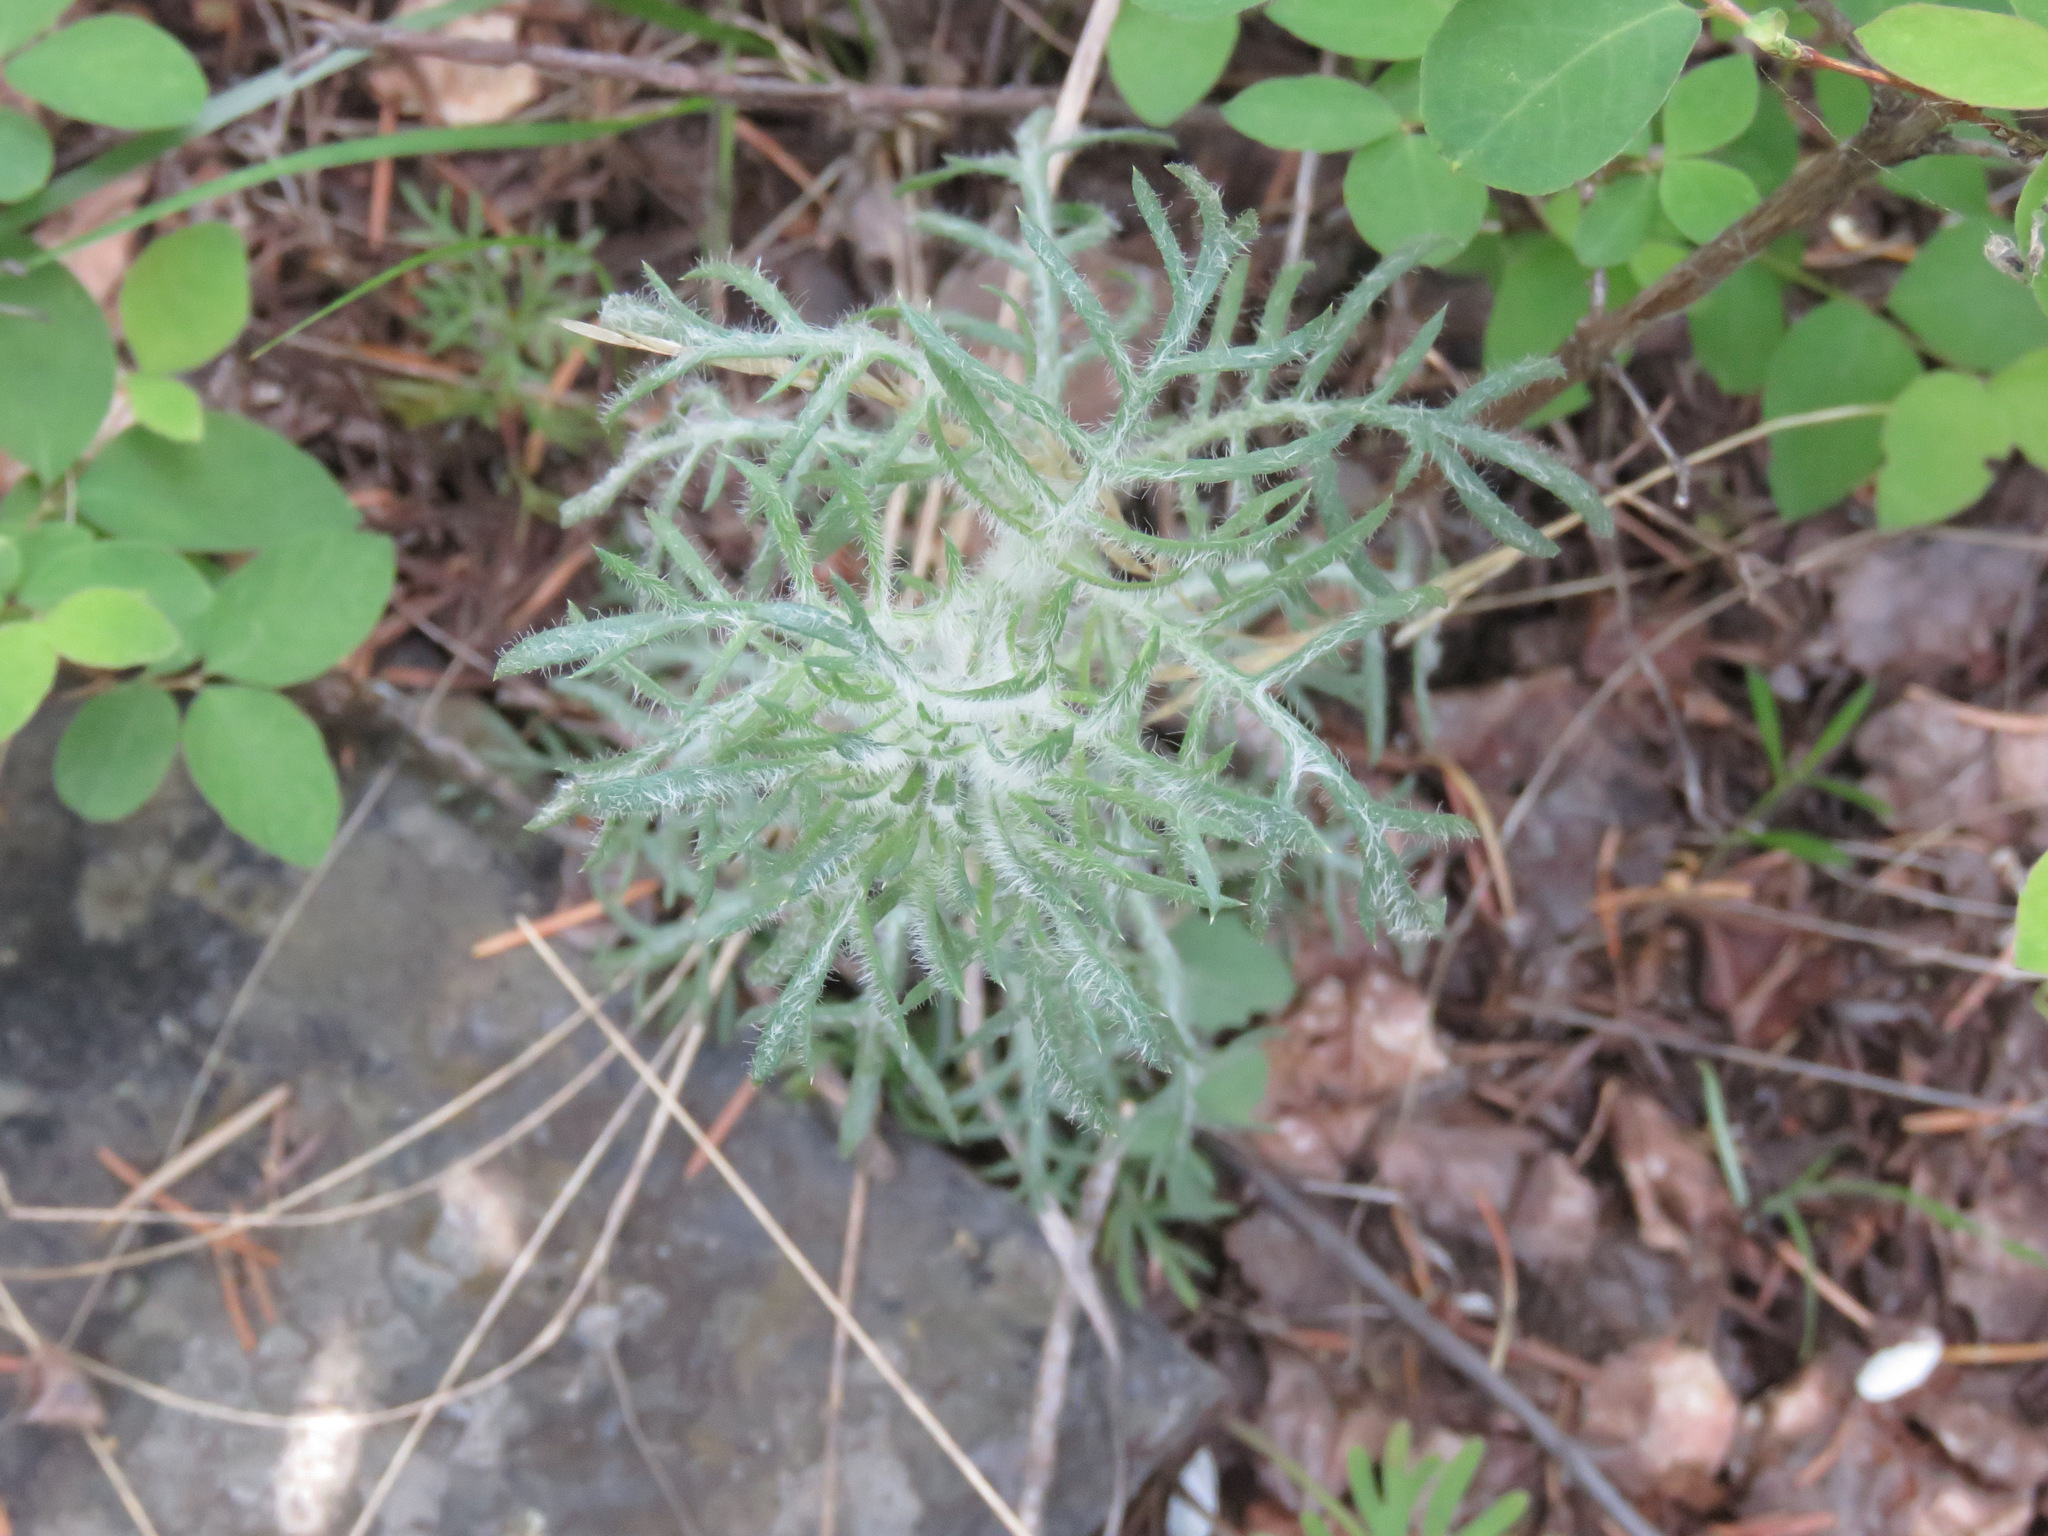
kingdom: Plantae
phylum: Tracheophyta
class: Magnoliopsida
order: Ericales
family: Polemoniaceae
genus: Ipomopsis
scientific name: Ipomopsis aggregata
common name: Scarlet gilia
